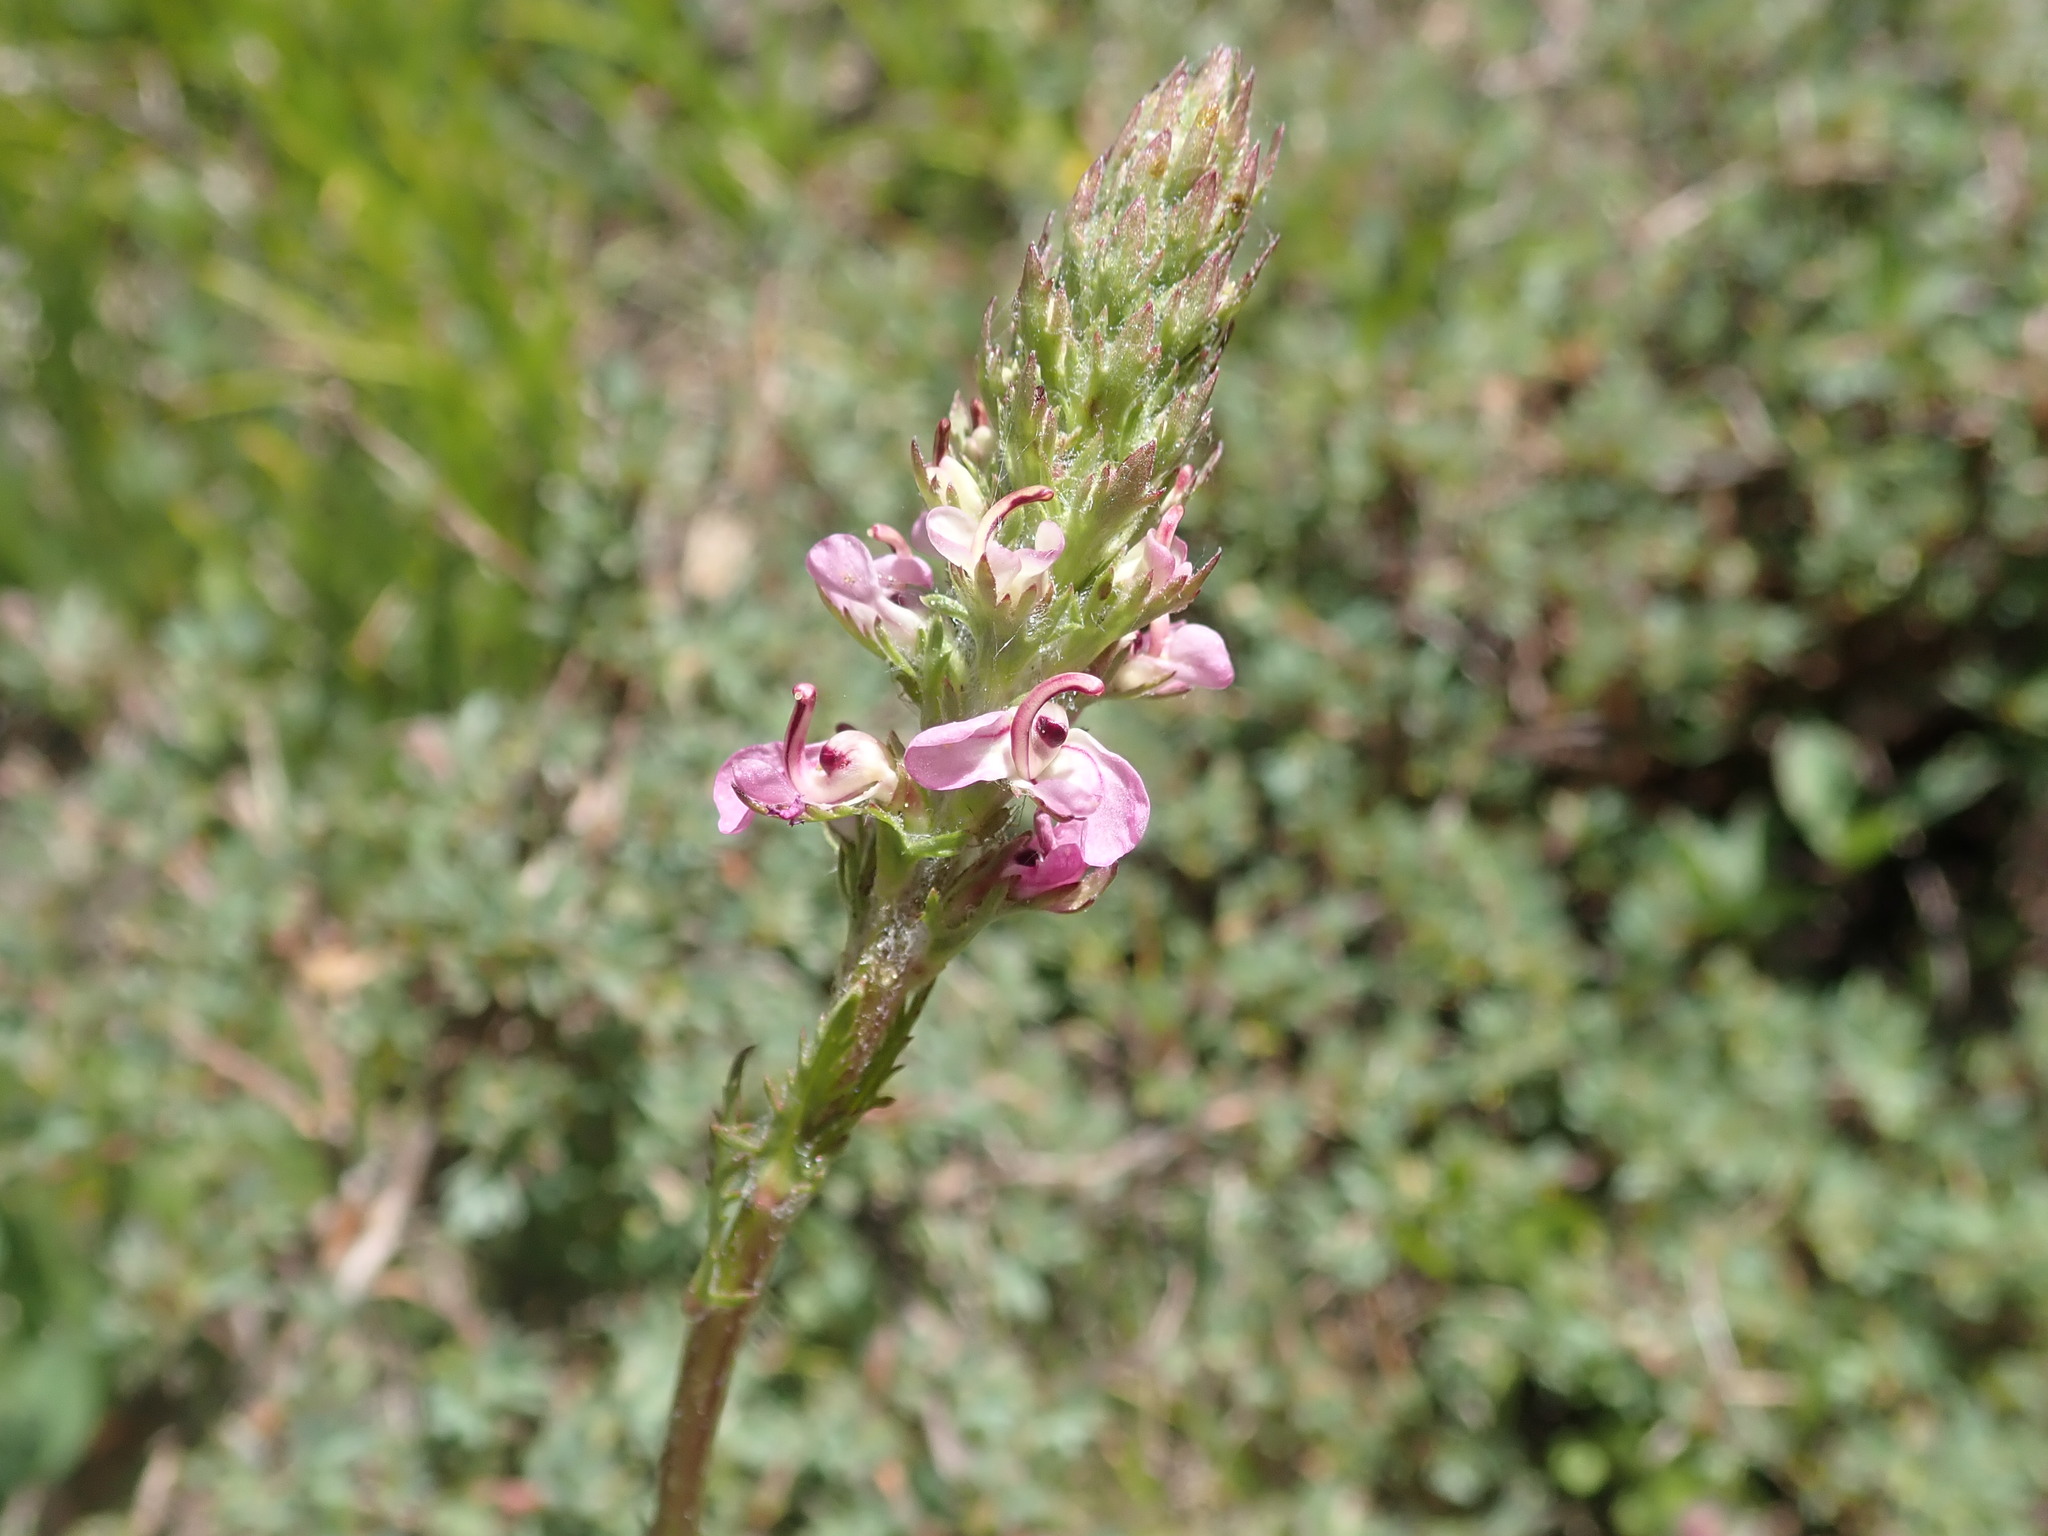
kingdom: Plantae
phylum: Tracheophyta
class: Magnoliopsida
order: Lamiales
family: Orobanchaceae
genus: Pedicularis
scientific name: Pedicularis attollens
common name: Slender pedicularis
